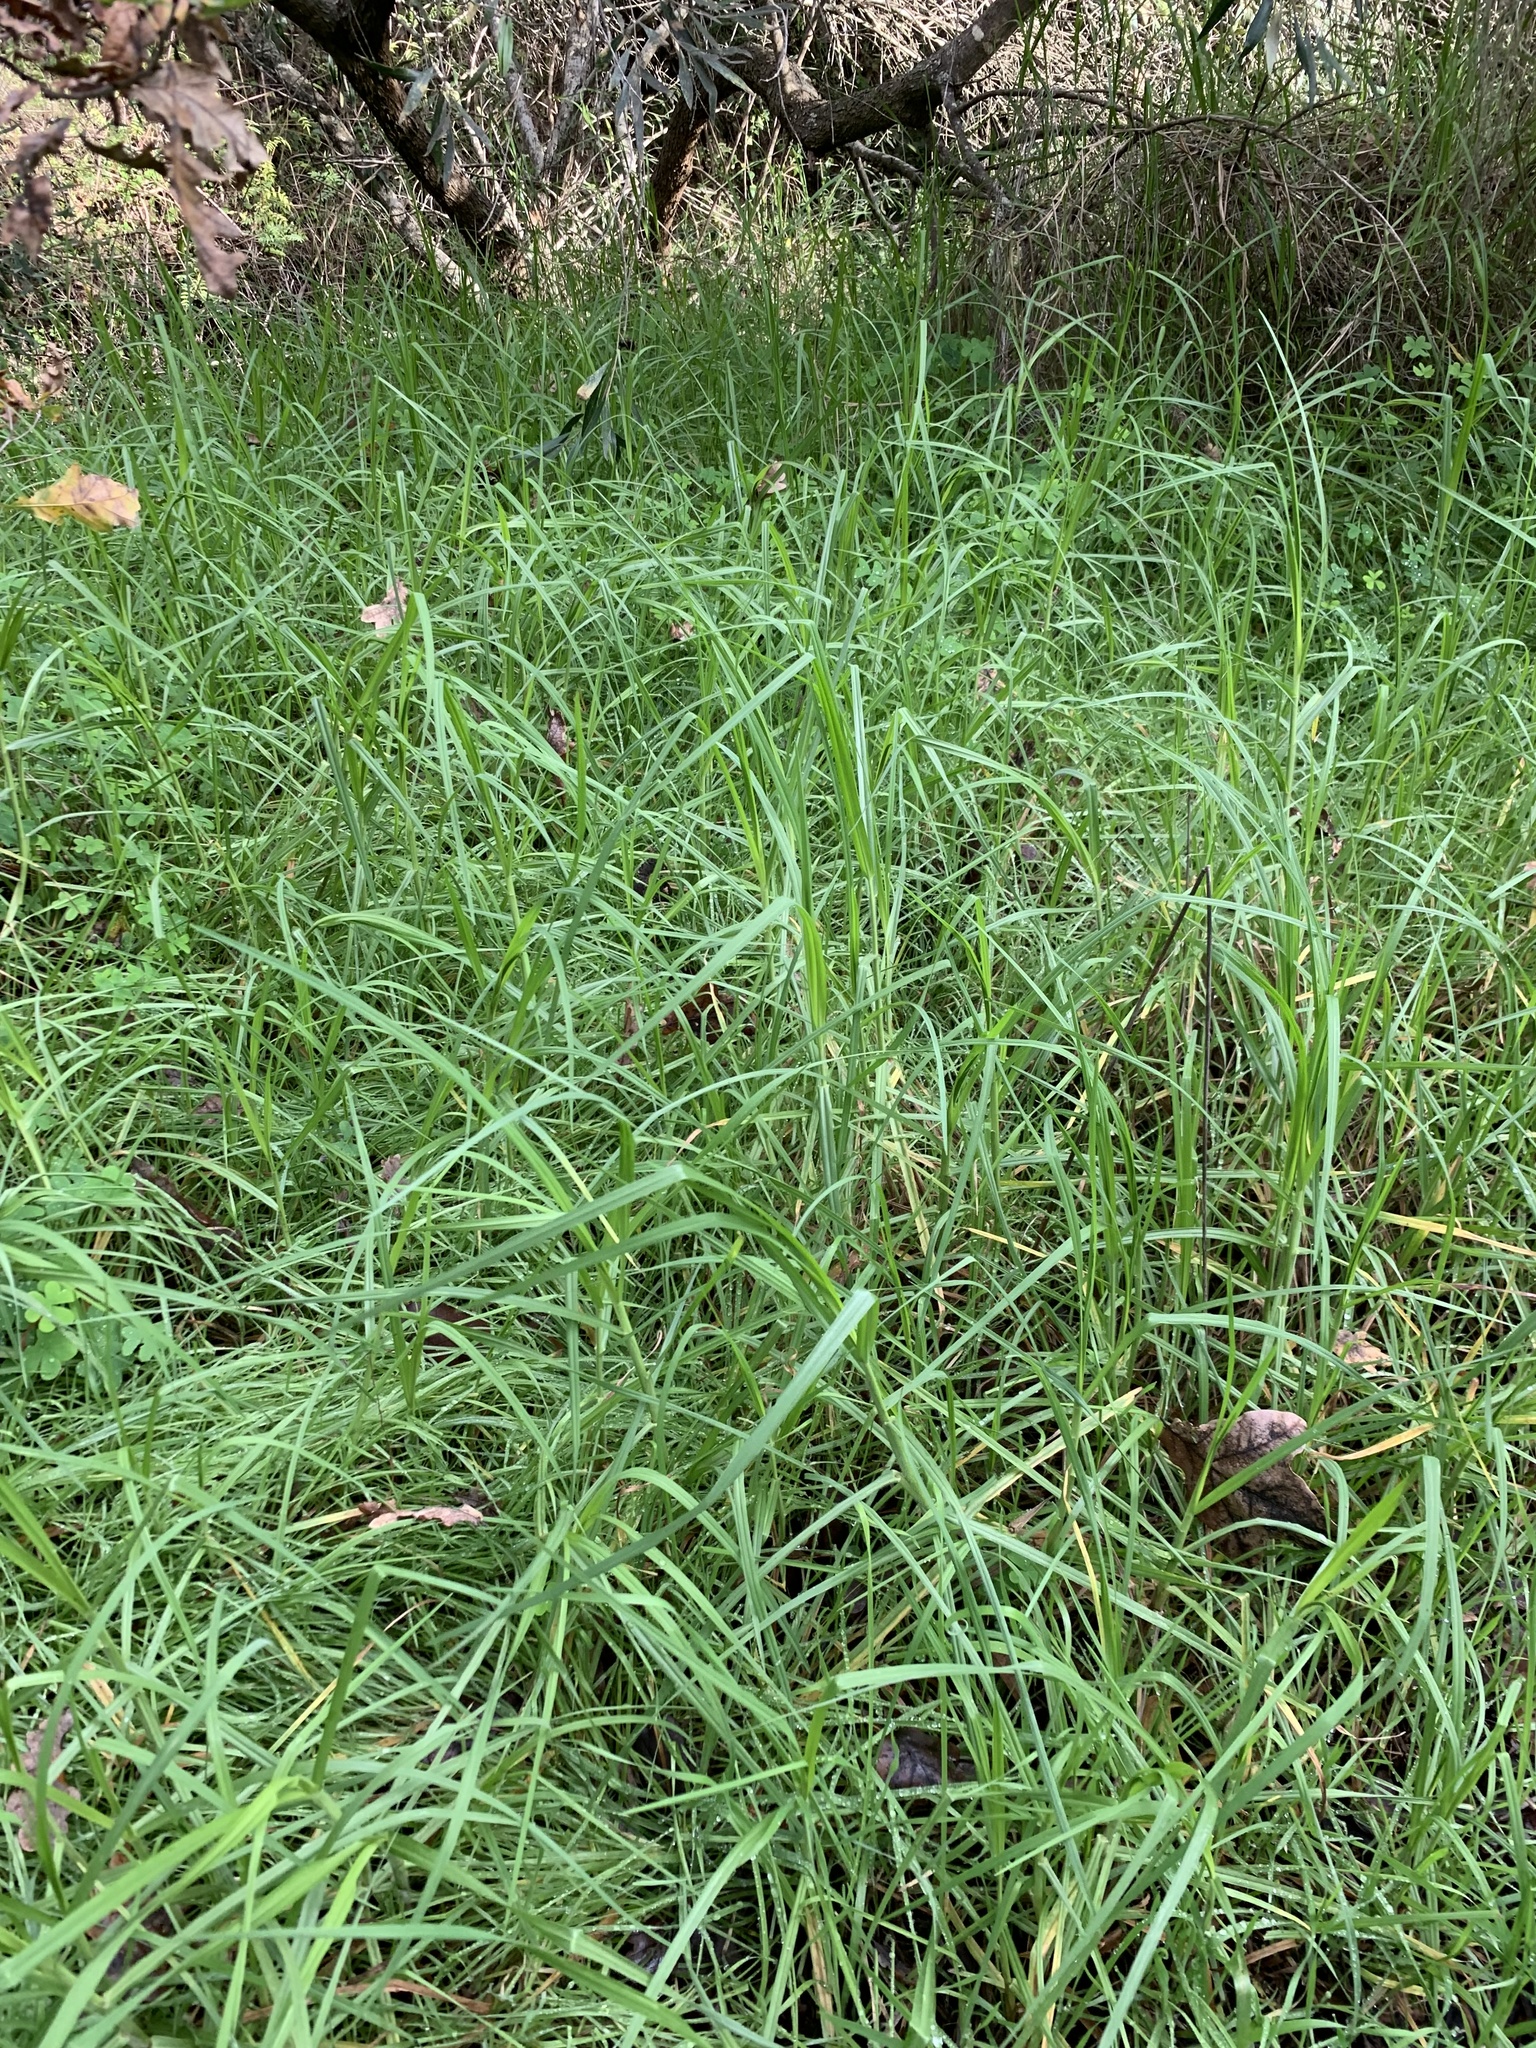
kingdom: Plantae
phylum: Tracheophyta
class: Liliopsida
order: Poales
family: Poaceae
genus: Cenchrus
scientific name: Cenchrus clandestinus
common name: Kikuyugrass
